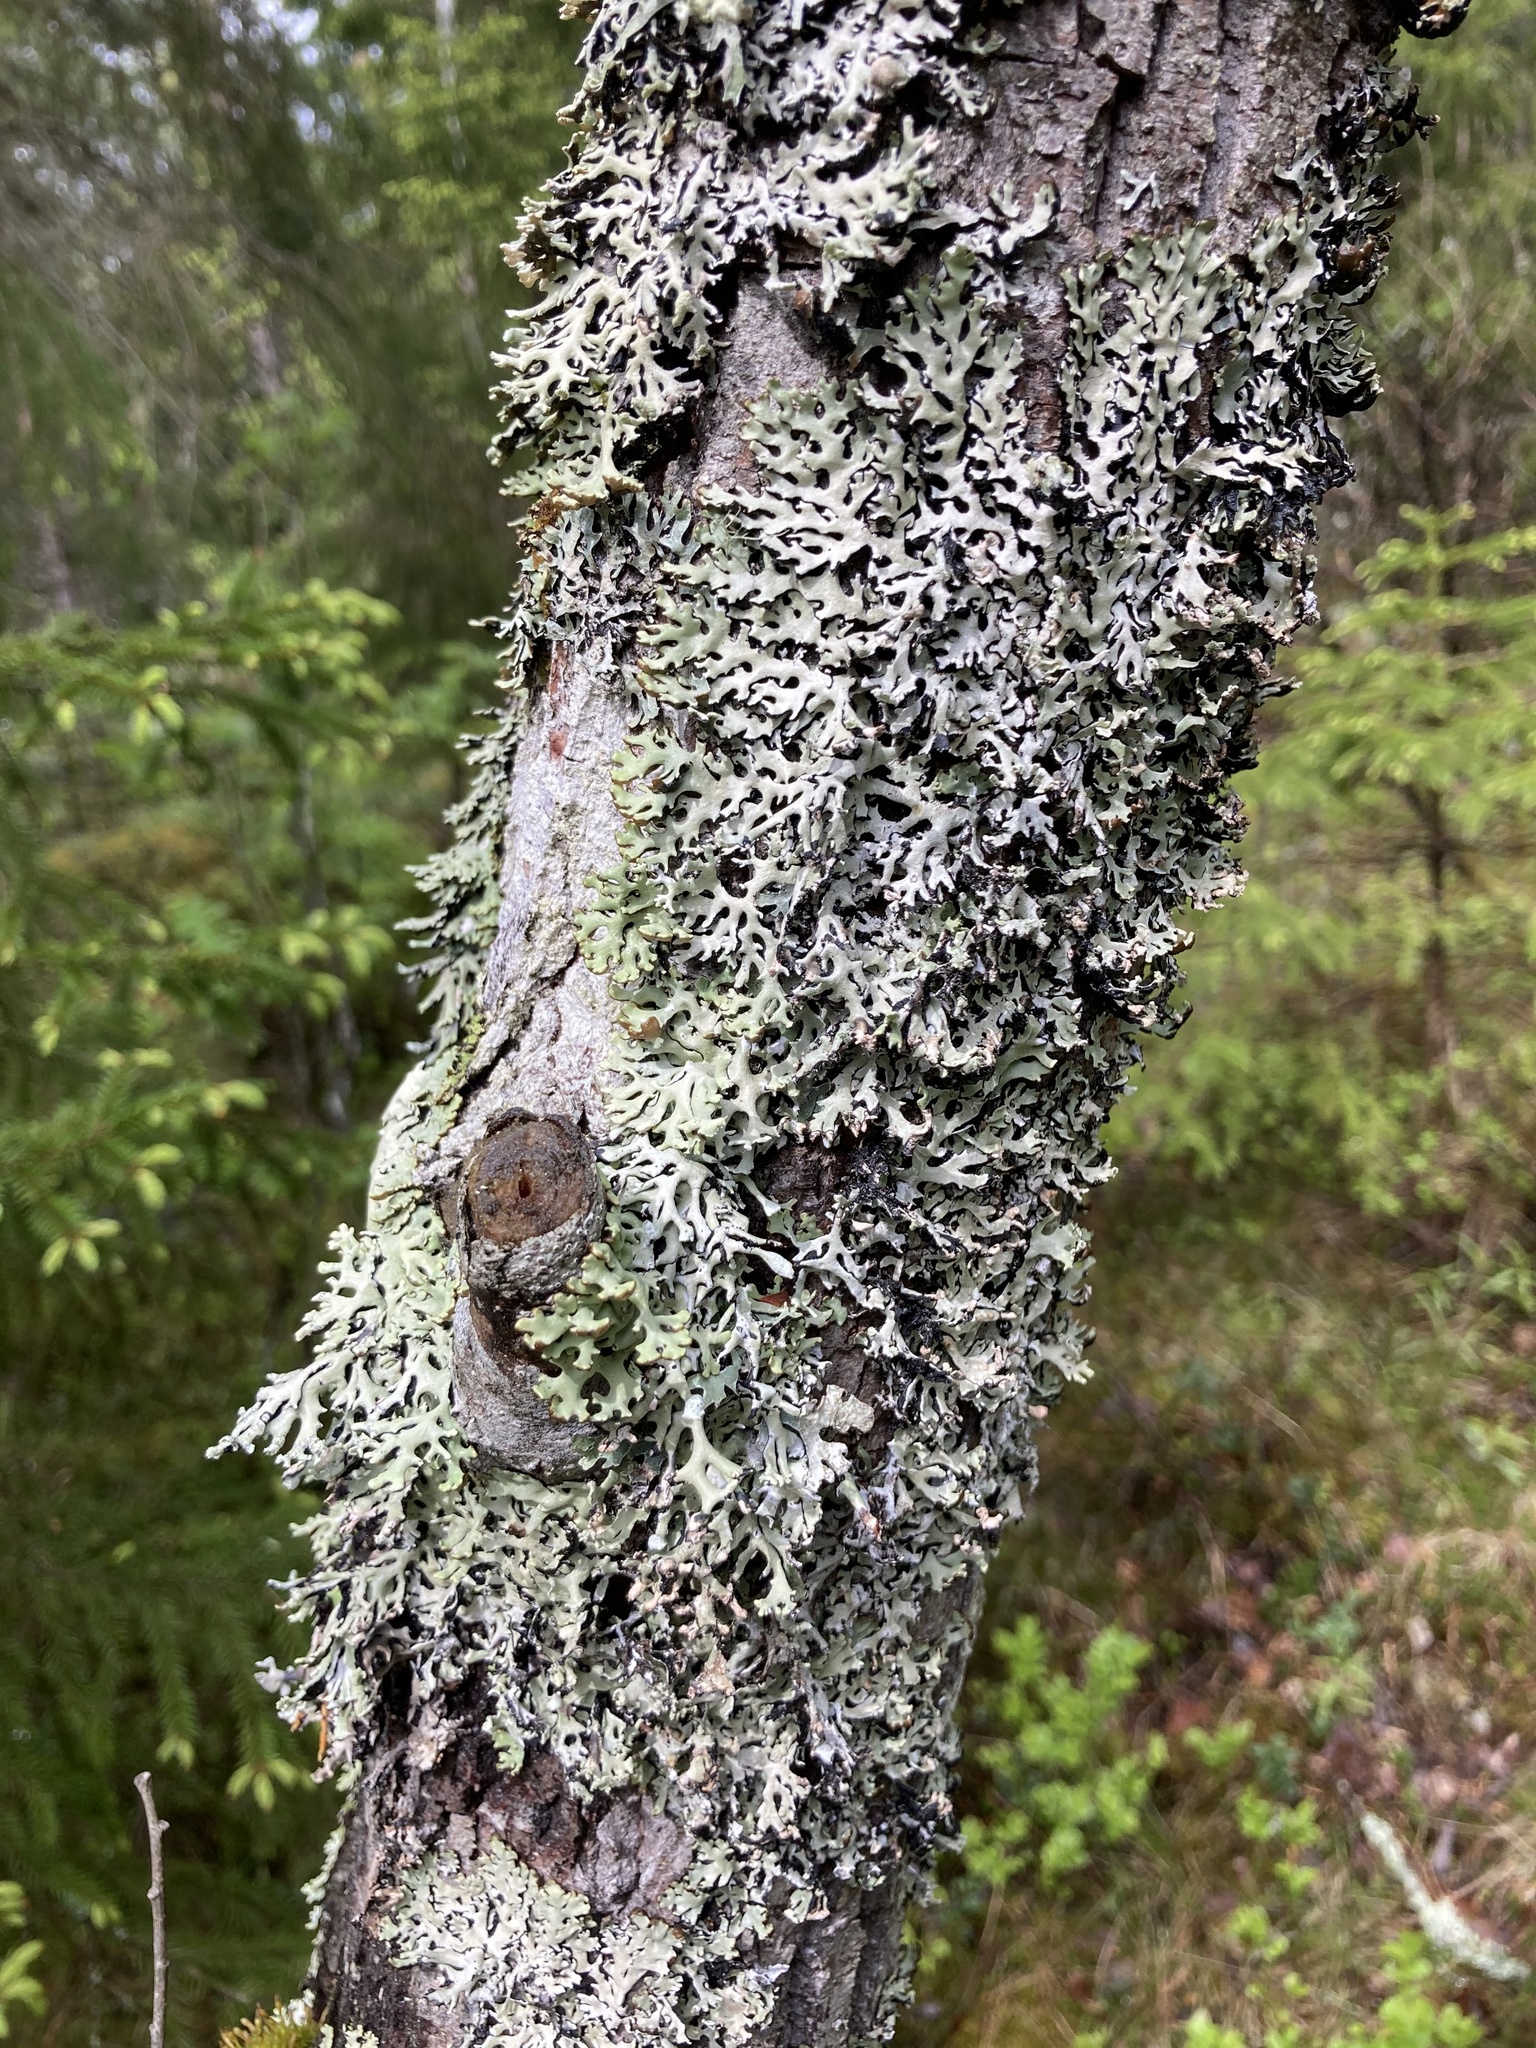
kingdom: Fungi
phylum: Ascomycota
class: Lecanoromycetes
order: Lecanorales
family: Parmeliaceae
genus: Hypogymnia
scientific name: Hypogymnia physodes
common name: Dark crottle
